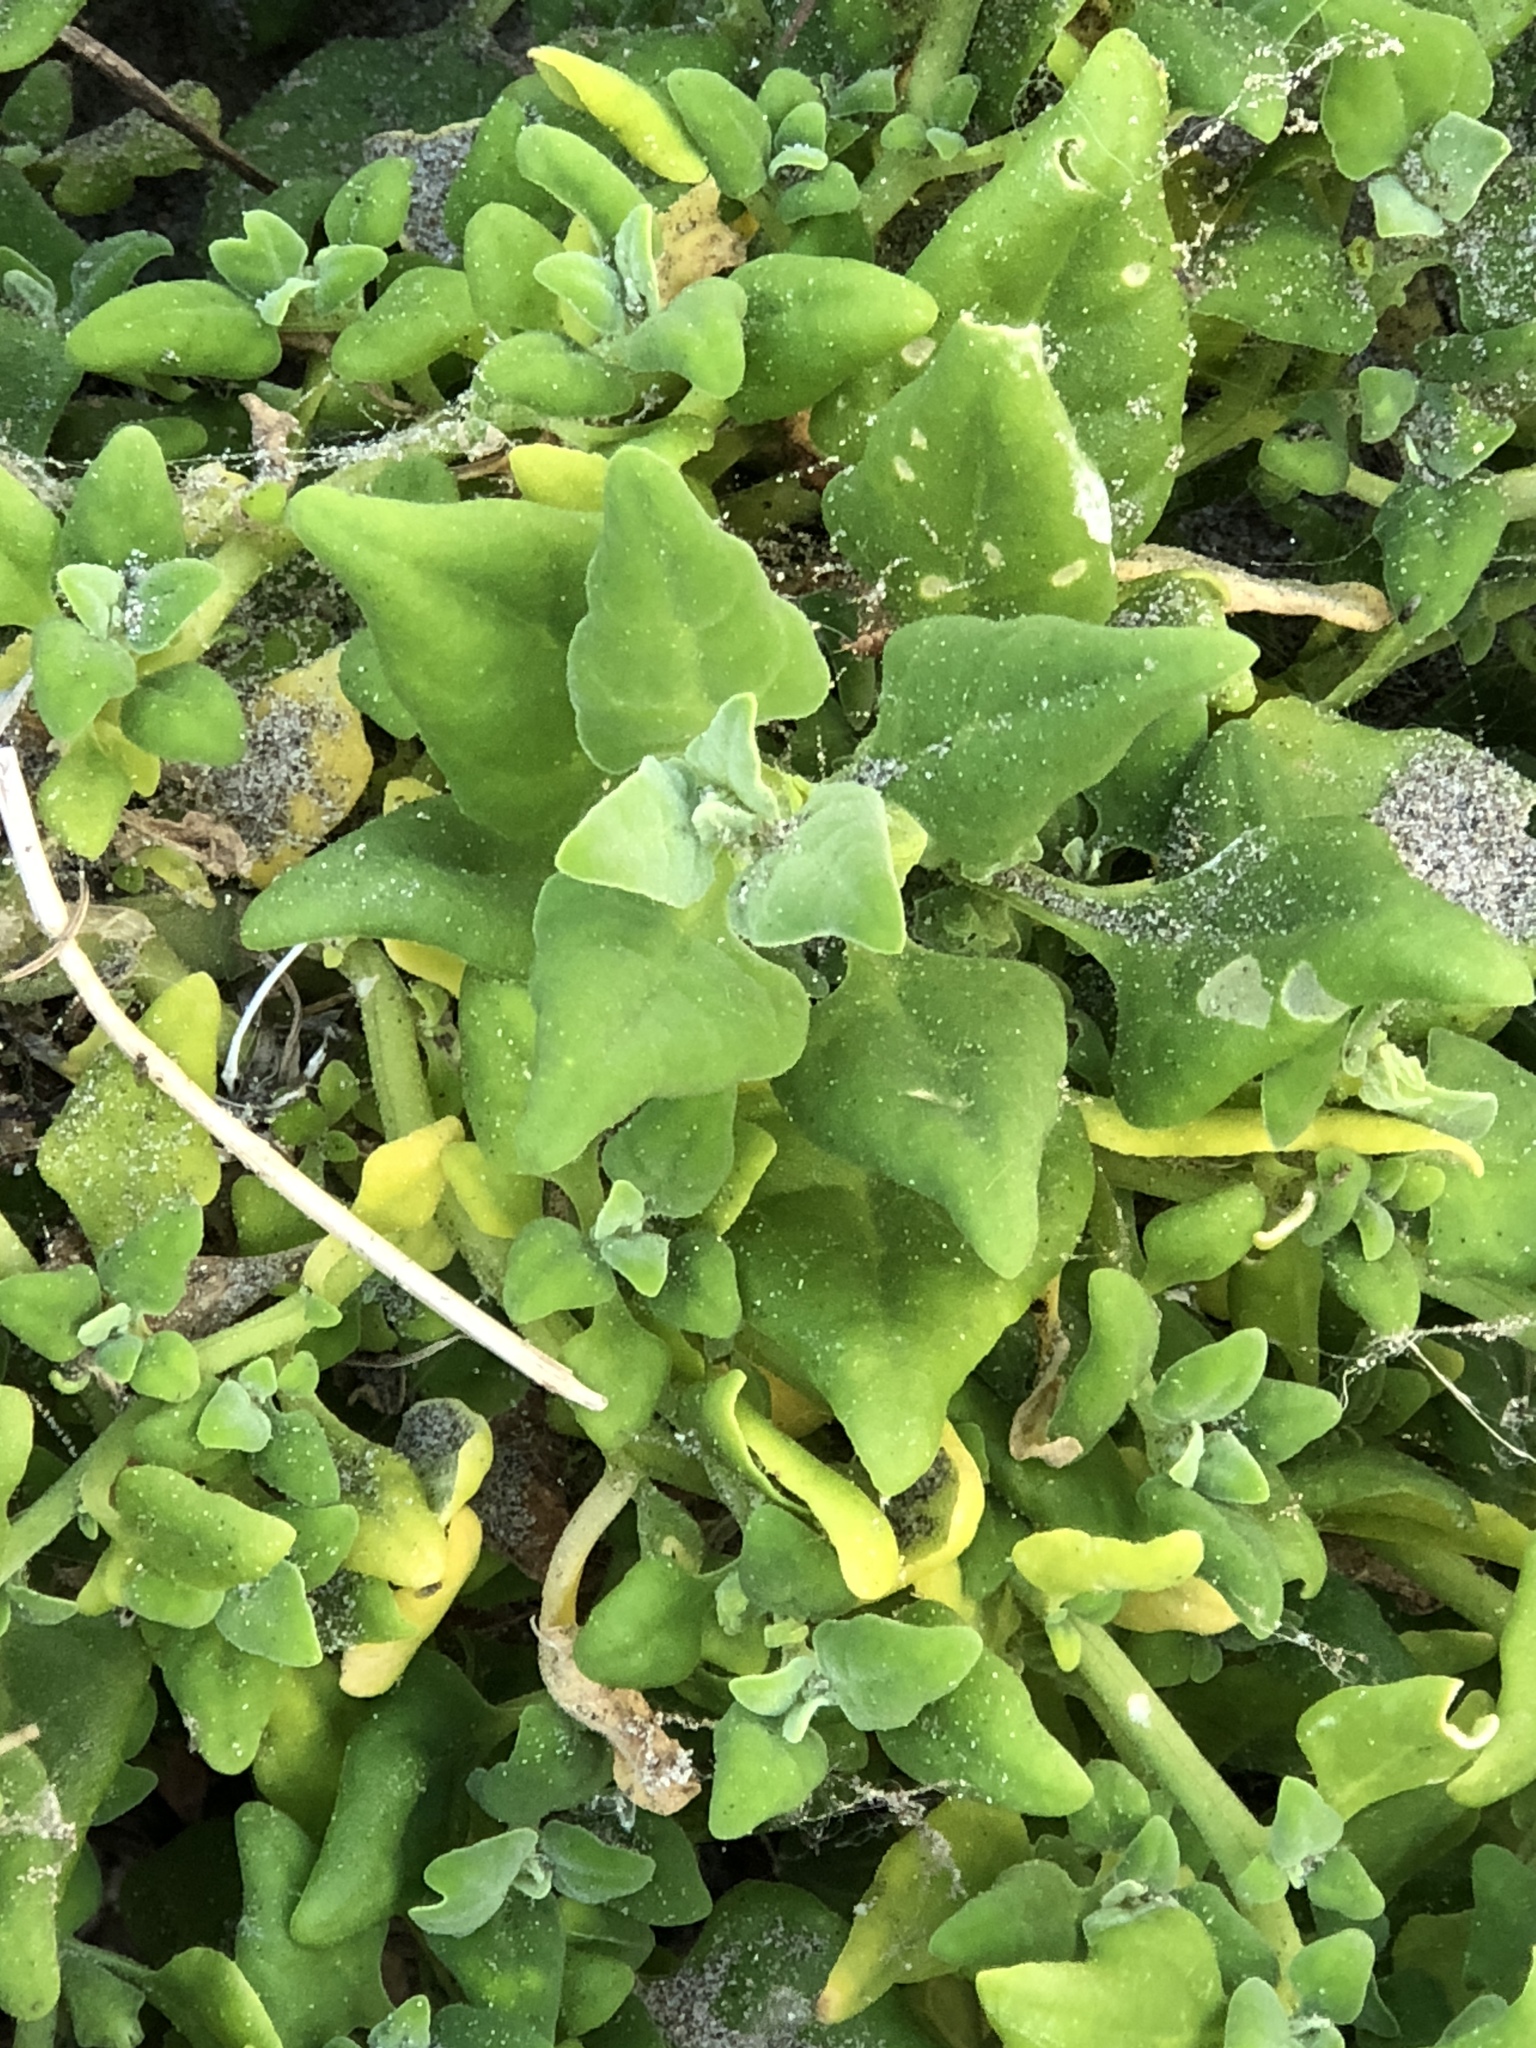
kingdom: Plantae
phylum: Tracheophyta
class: Magnoliopsida
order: Caryophyllales
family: Aizoaceae
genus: Tetragonia
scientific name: Tetragonia tetragonoides
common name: New zealand-spinach
